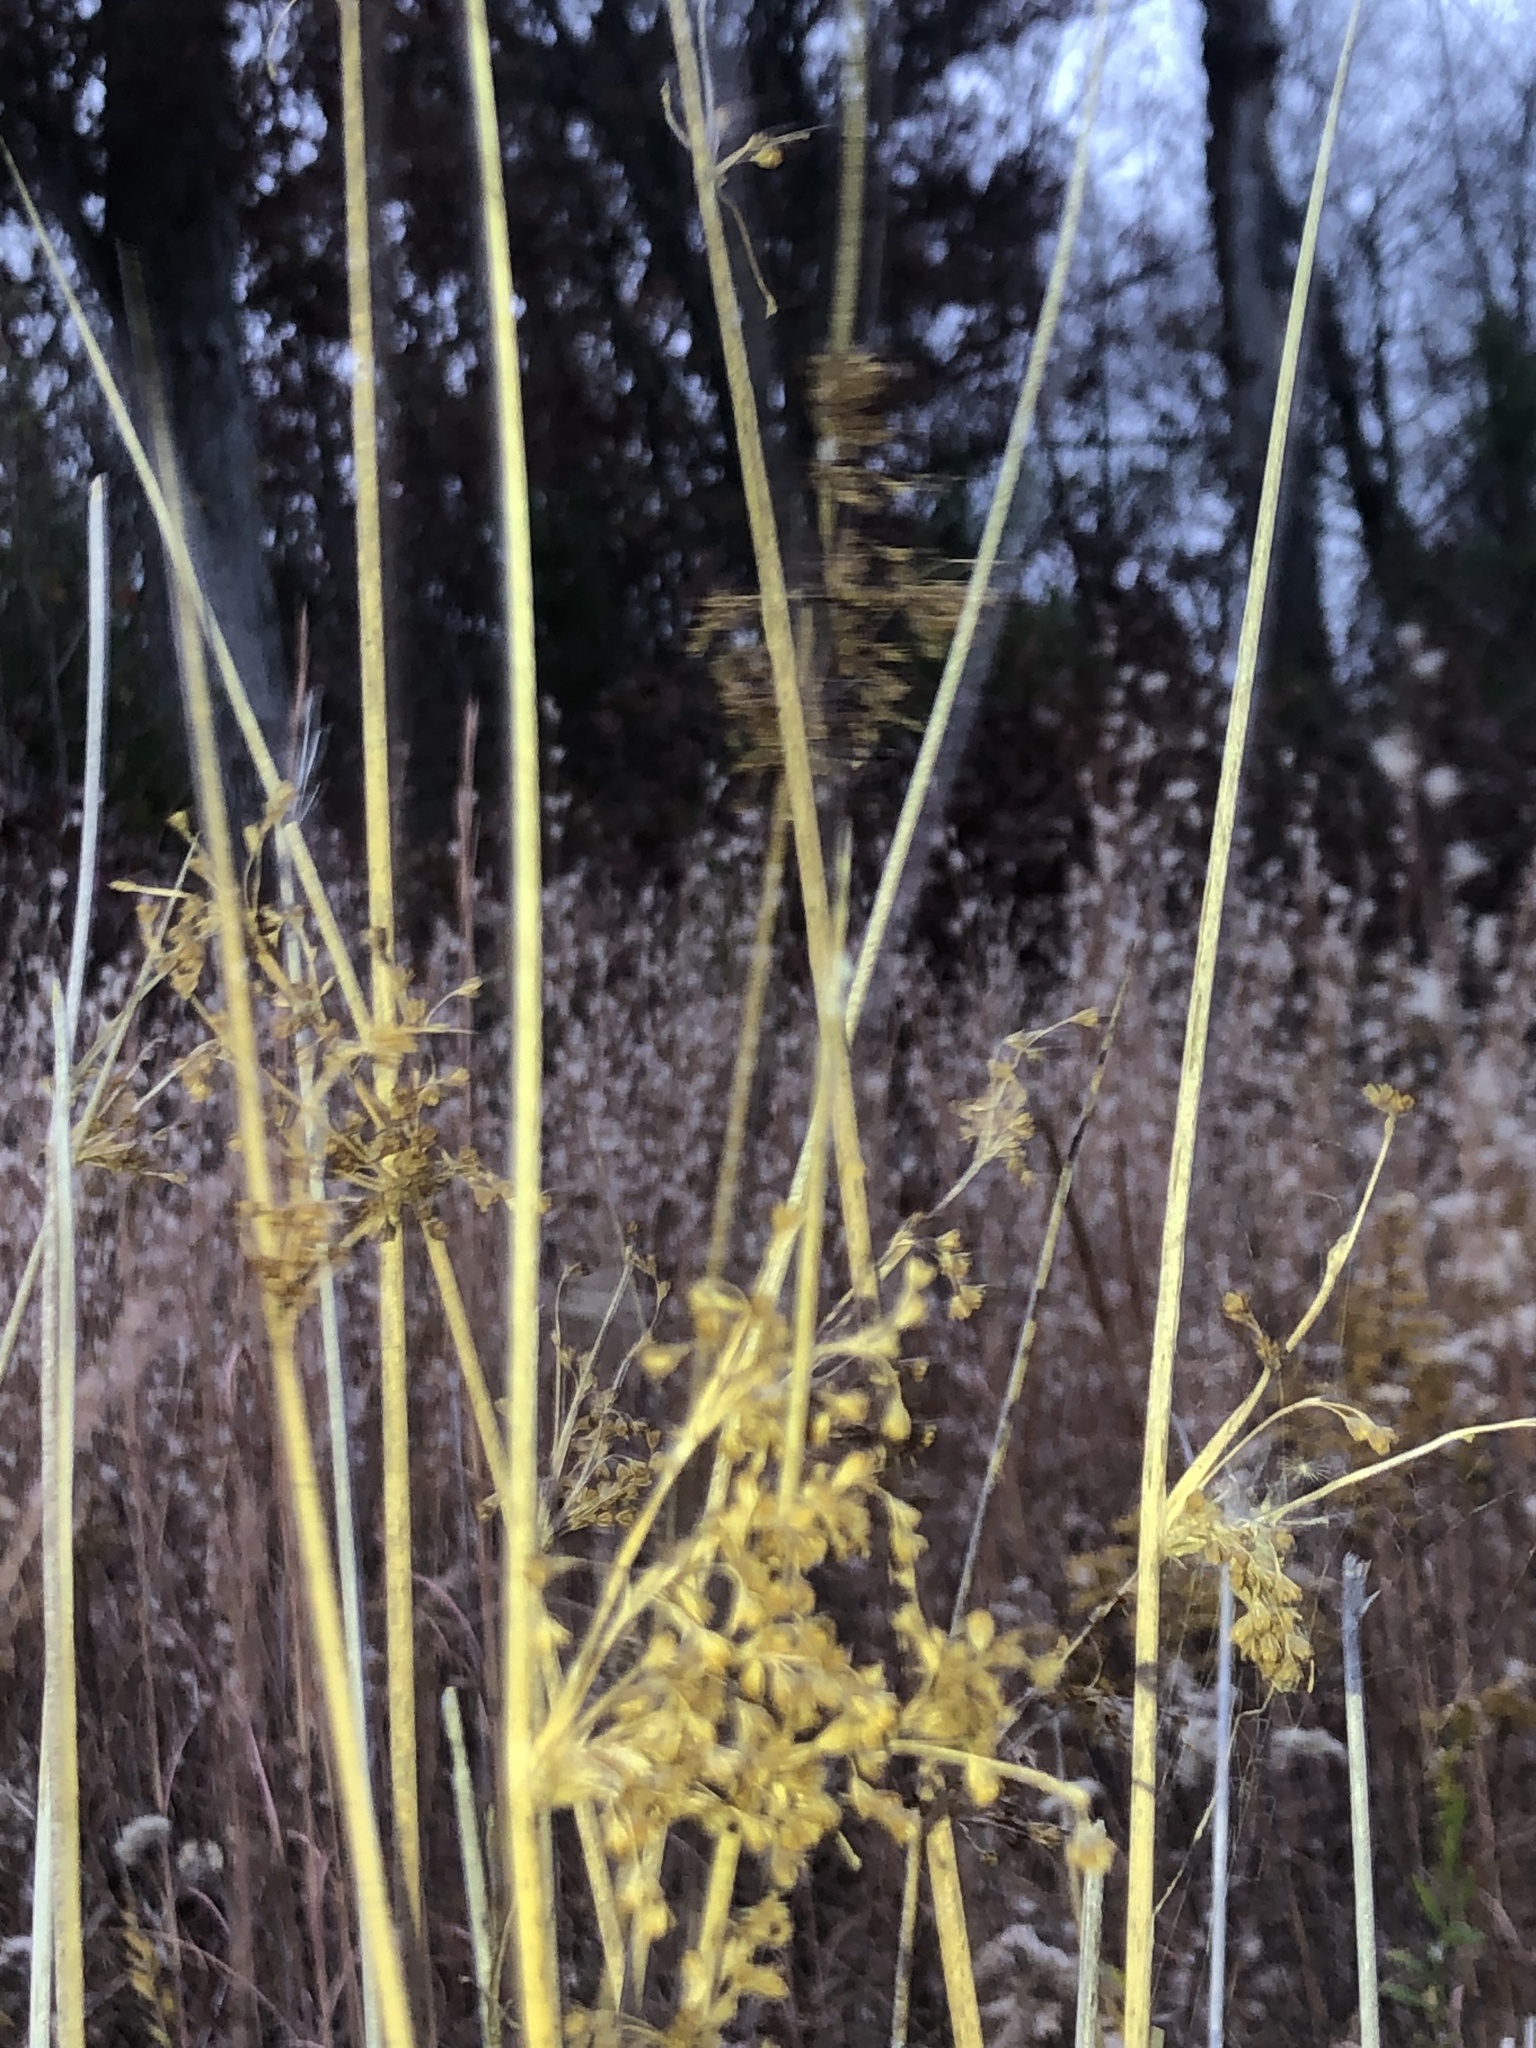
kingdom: Plantae
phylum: Tracheophyta
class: Liliopsida
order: Poales
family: Juncaceae
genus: Juncus
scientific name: Juncus effusus
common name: Soft rush
